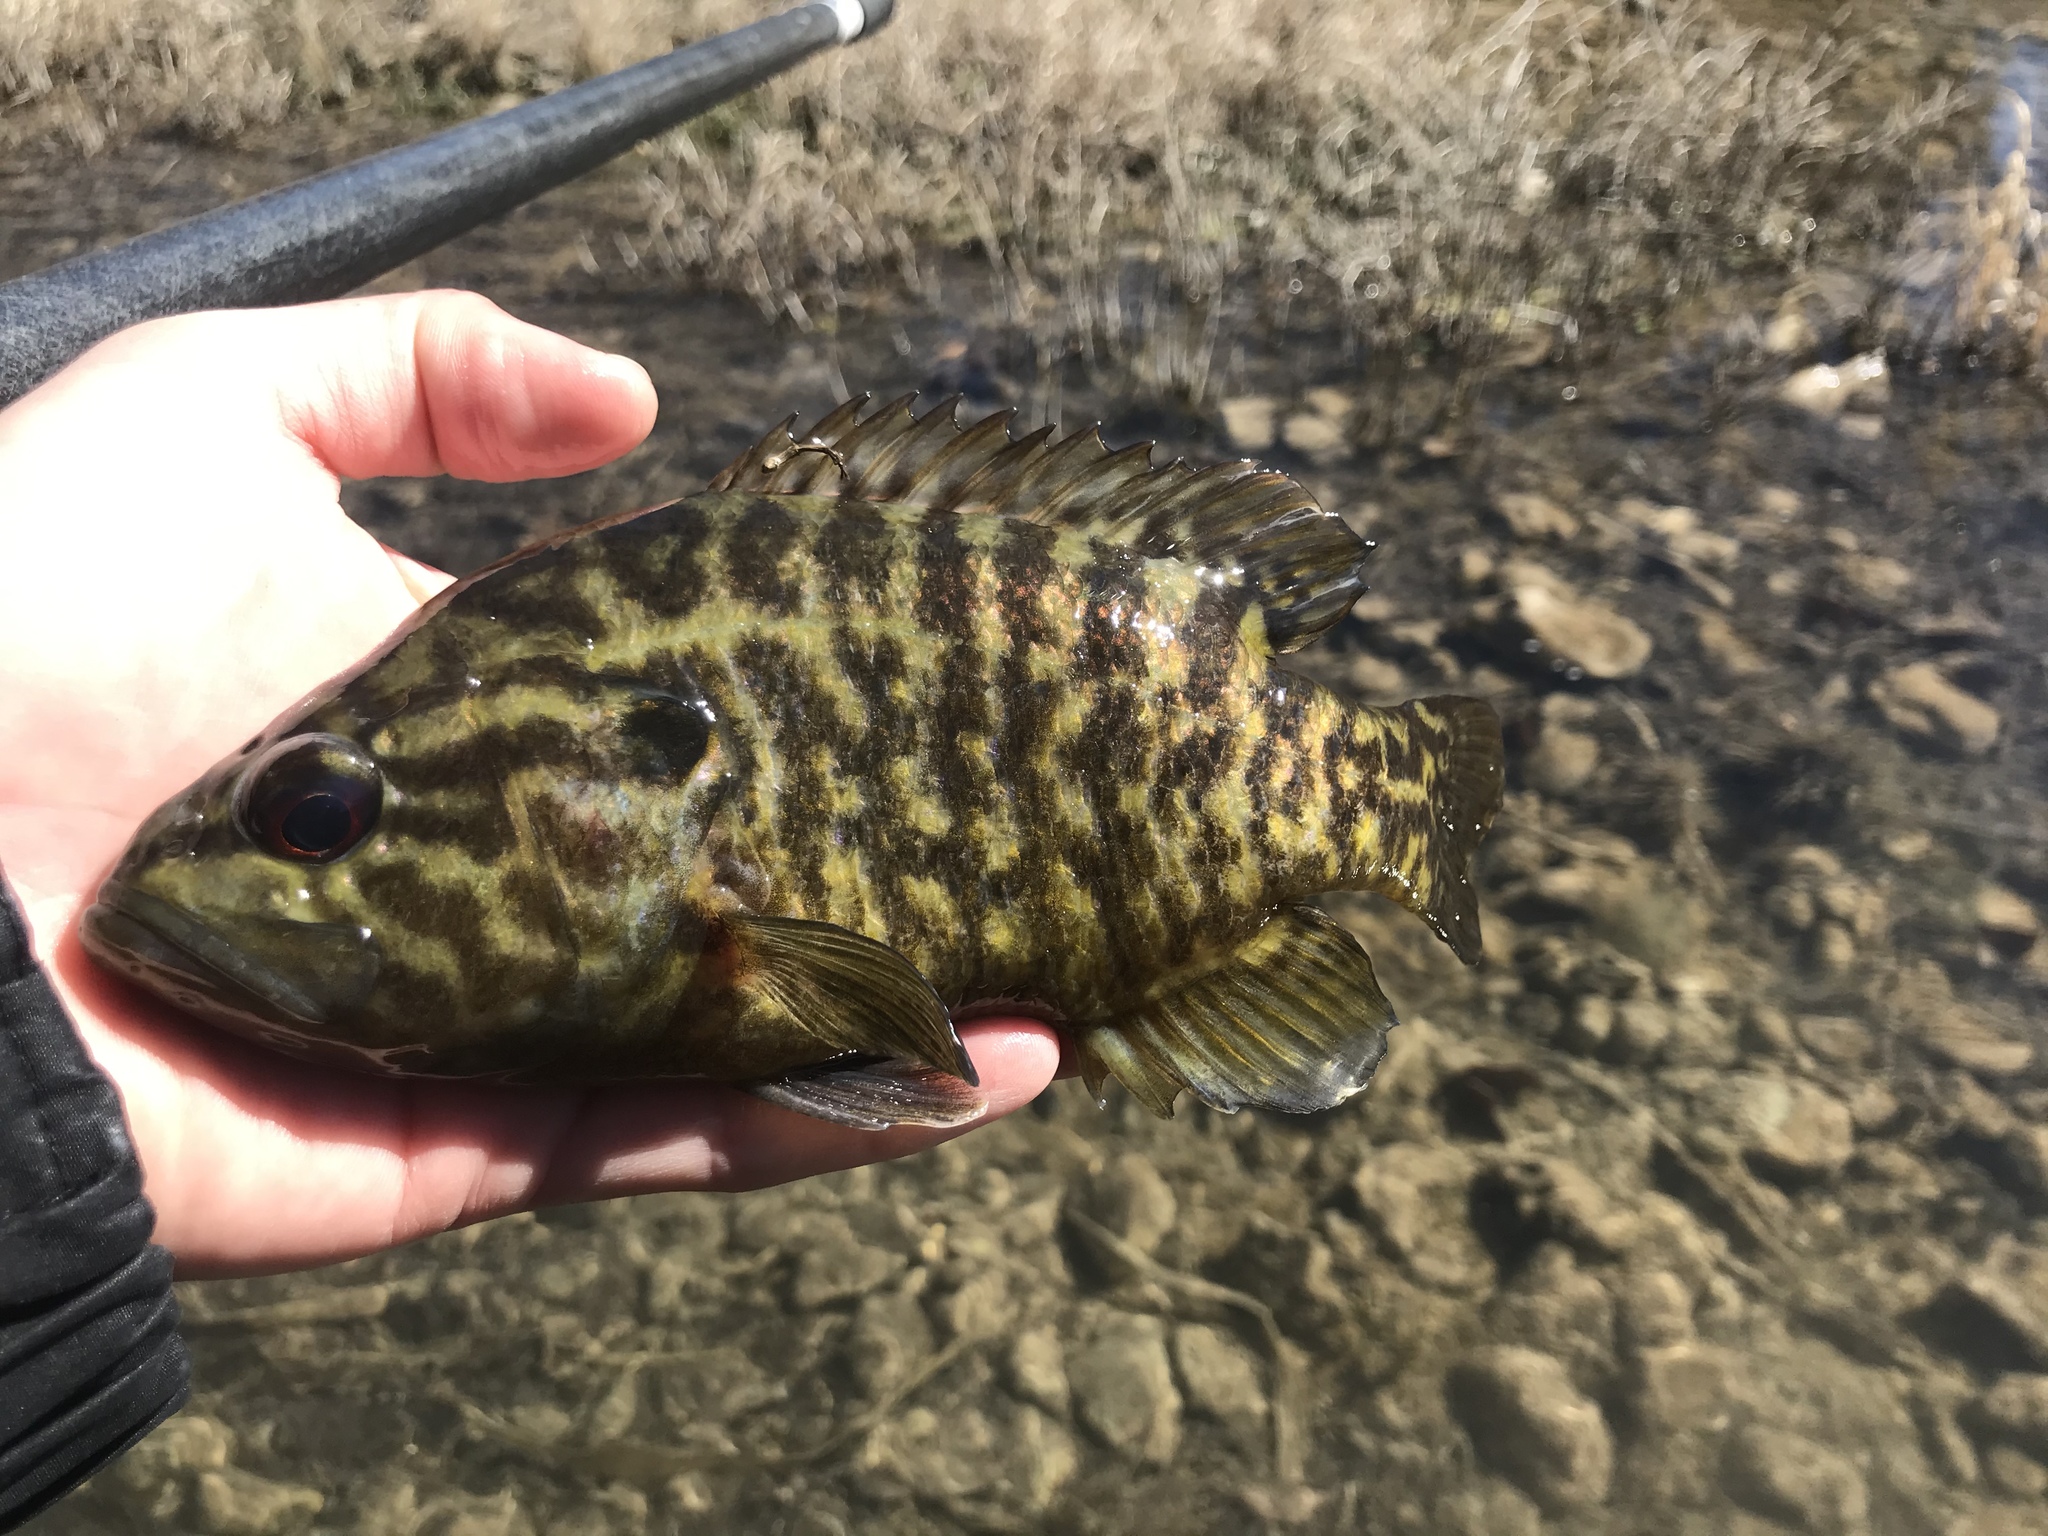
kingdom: Animalia
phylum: Chordata
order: Perciformes
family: Centrarchidae
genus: Lepomis
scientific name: Lepomis gulosus
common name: Warmouth
